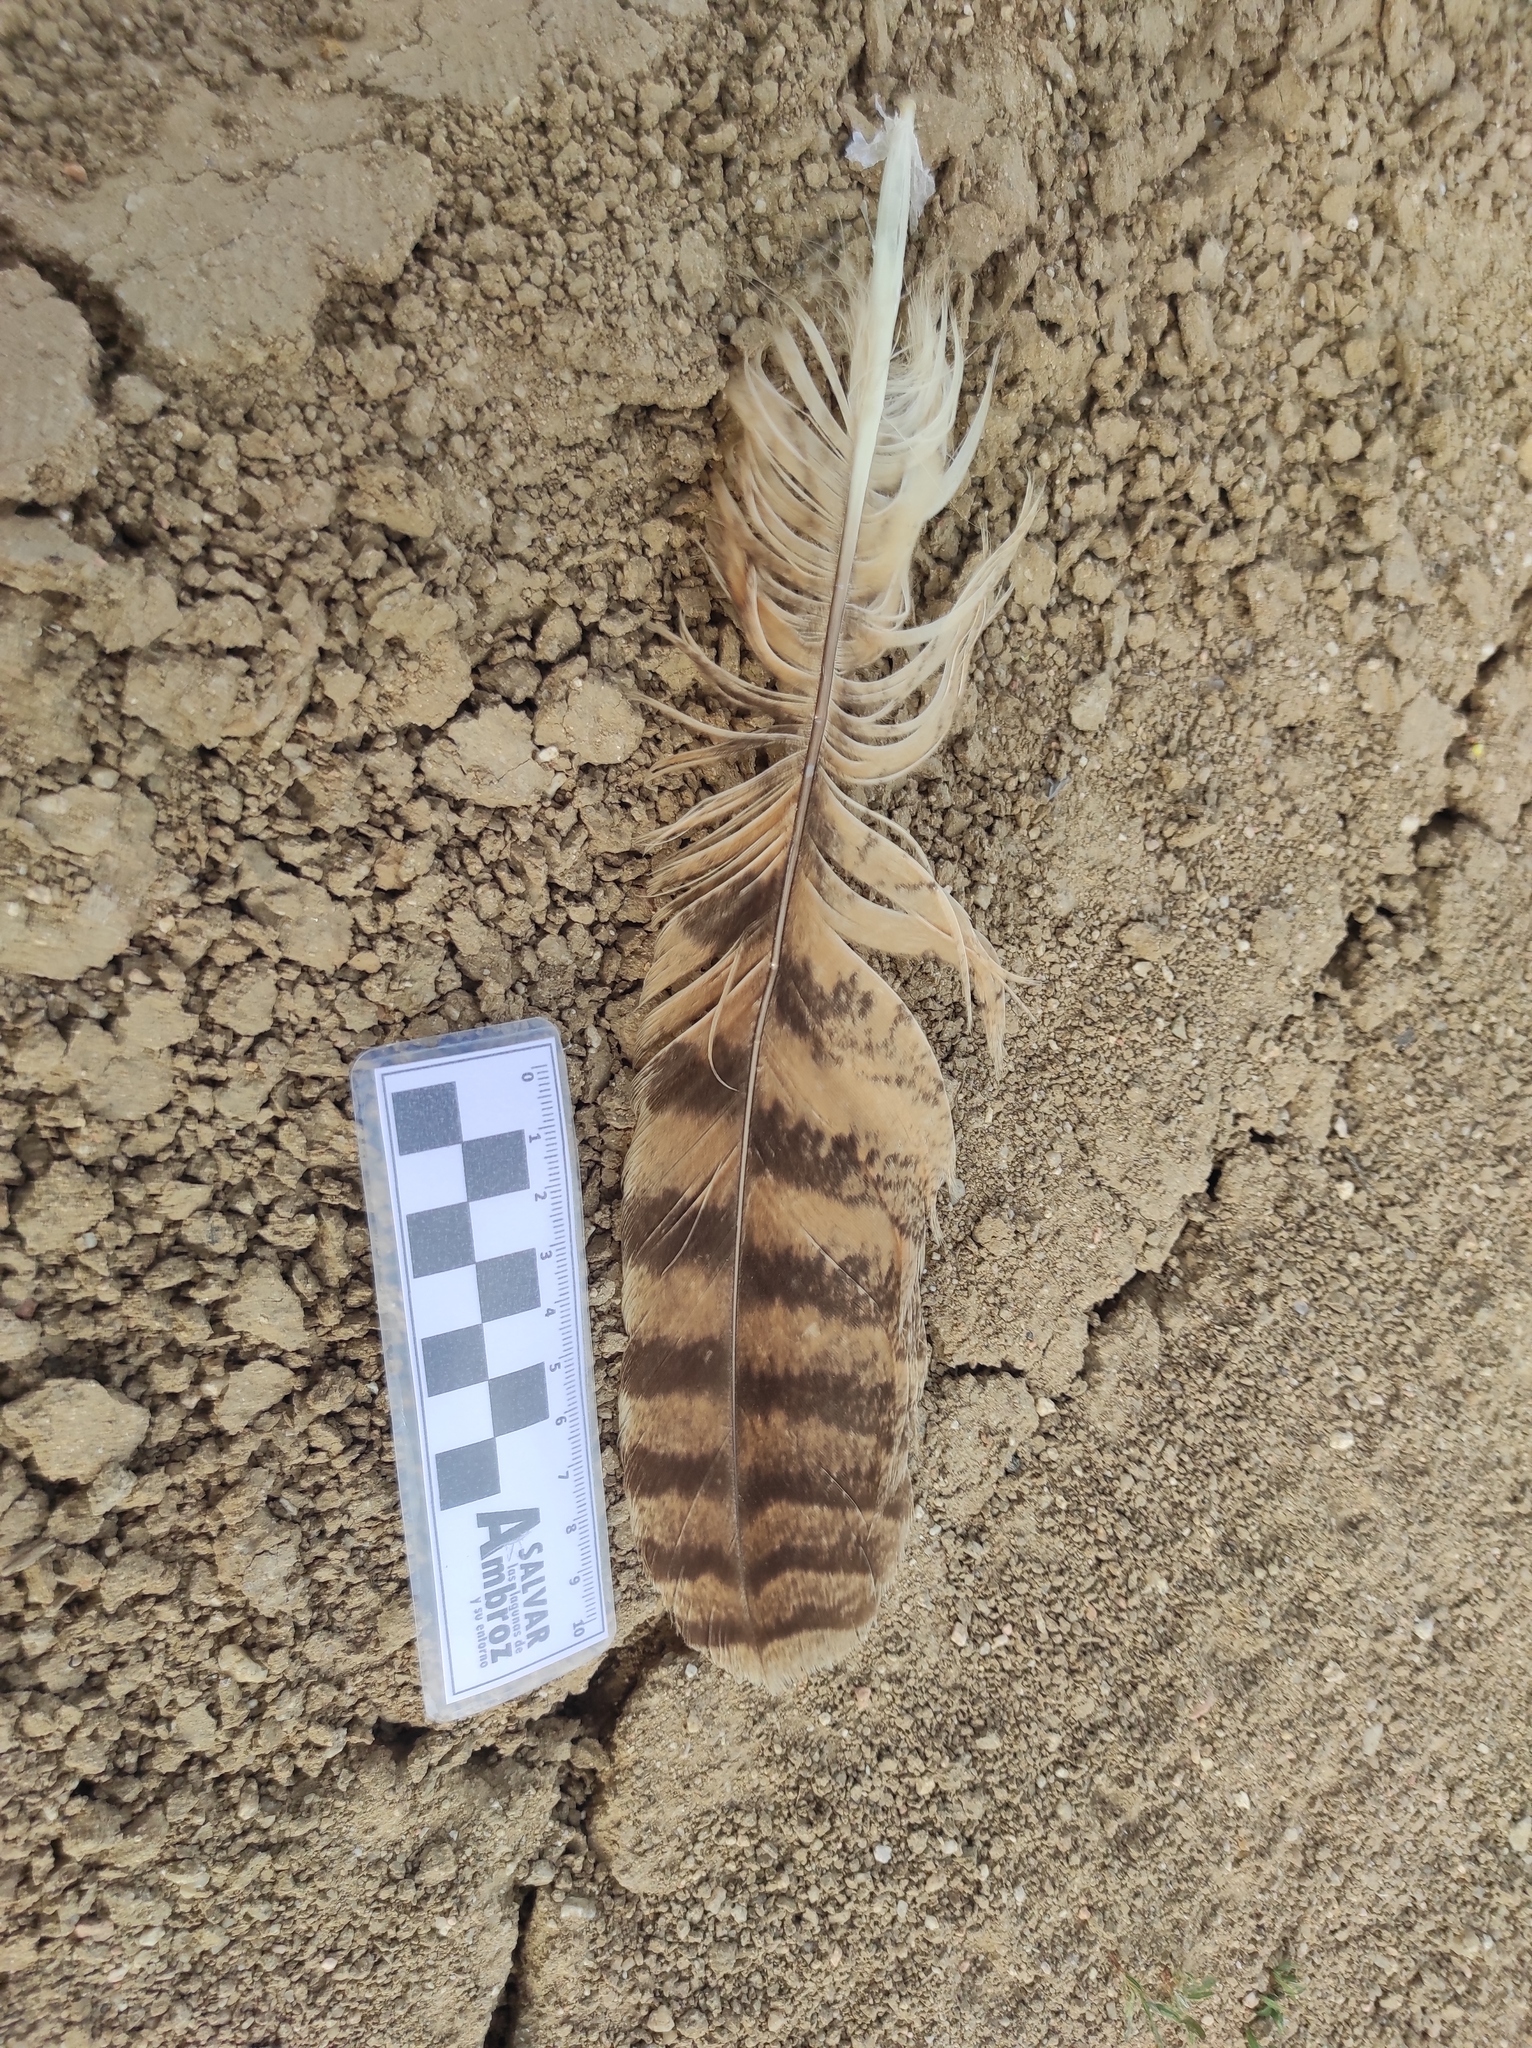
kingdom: Animalia
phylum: Chordata
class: Aves
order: Strigiformes
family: Strigidae
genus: Bubo
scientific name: Bubo bubo
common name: Eurasian eagle-owl
